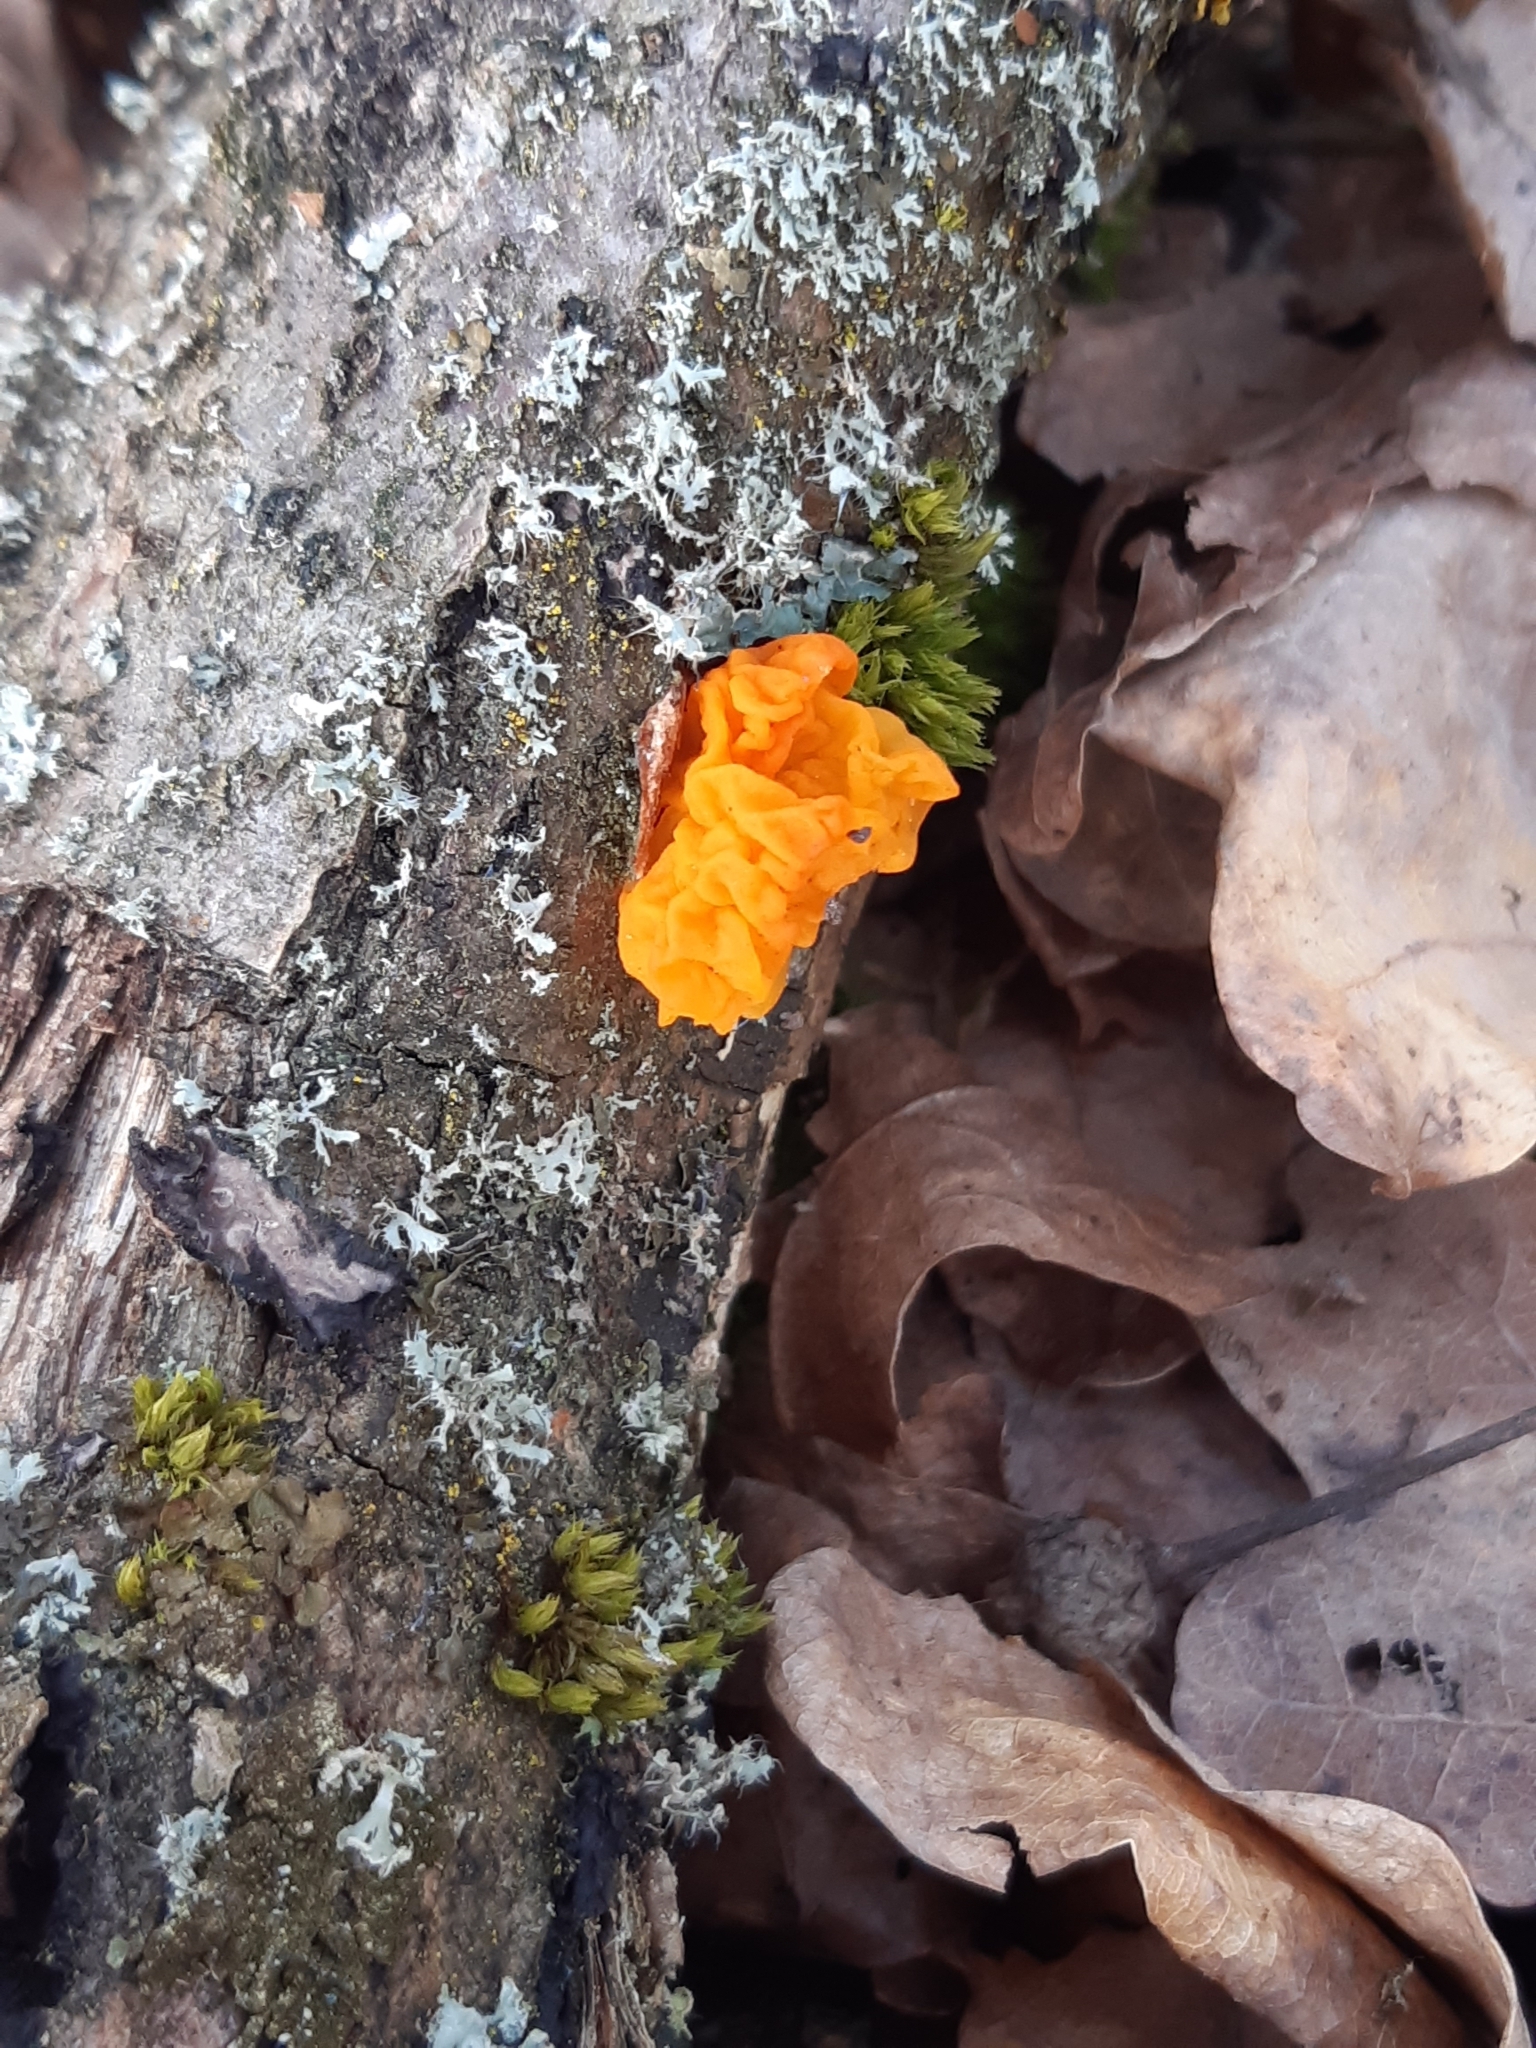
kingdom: Fungi
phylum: Basidiomycota
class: Tremellomycetes
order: Tremellales
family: Tremellaceae
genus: Tremella
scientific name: Tremella mesenterica
